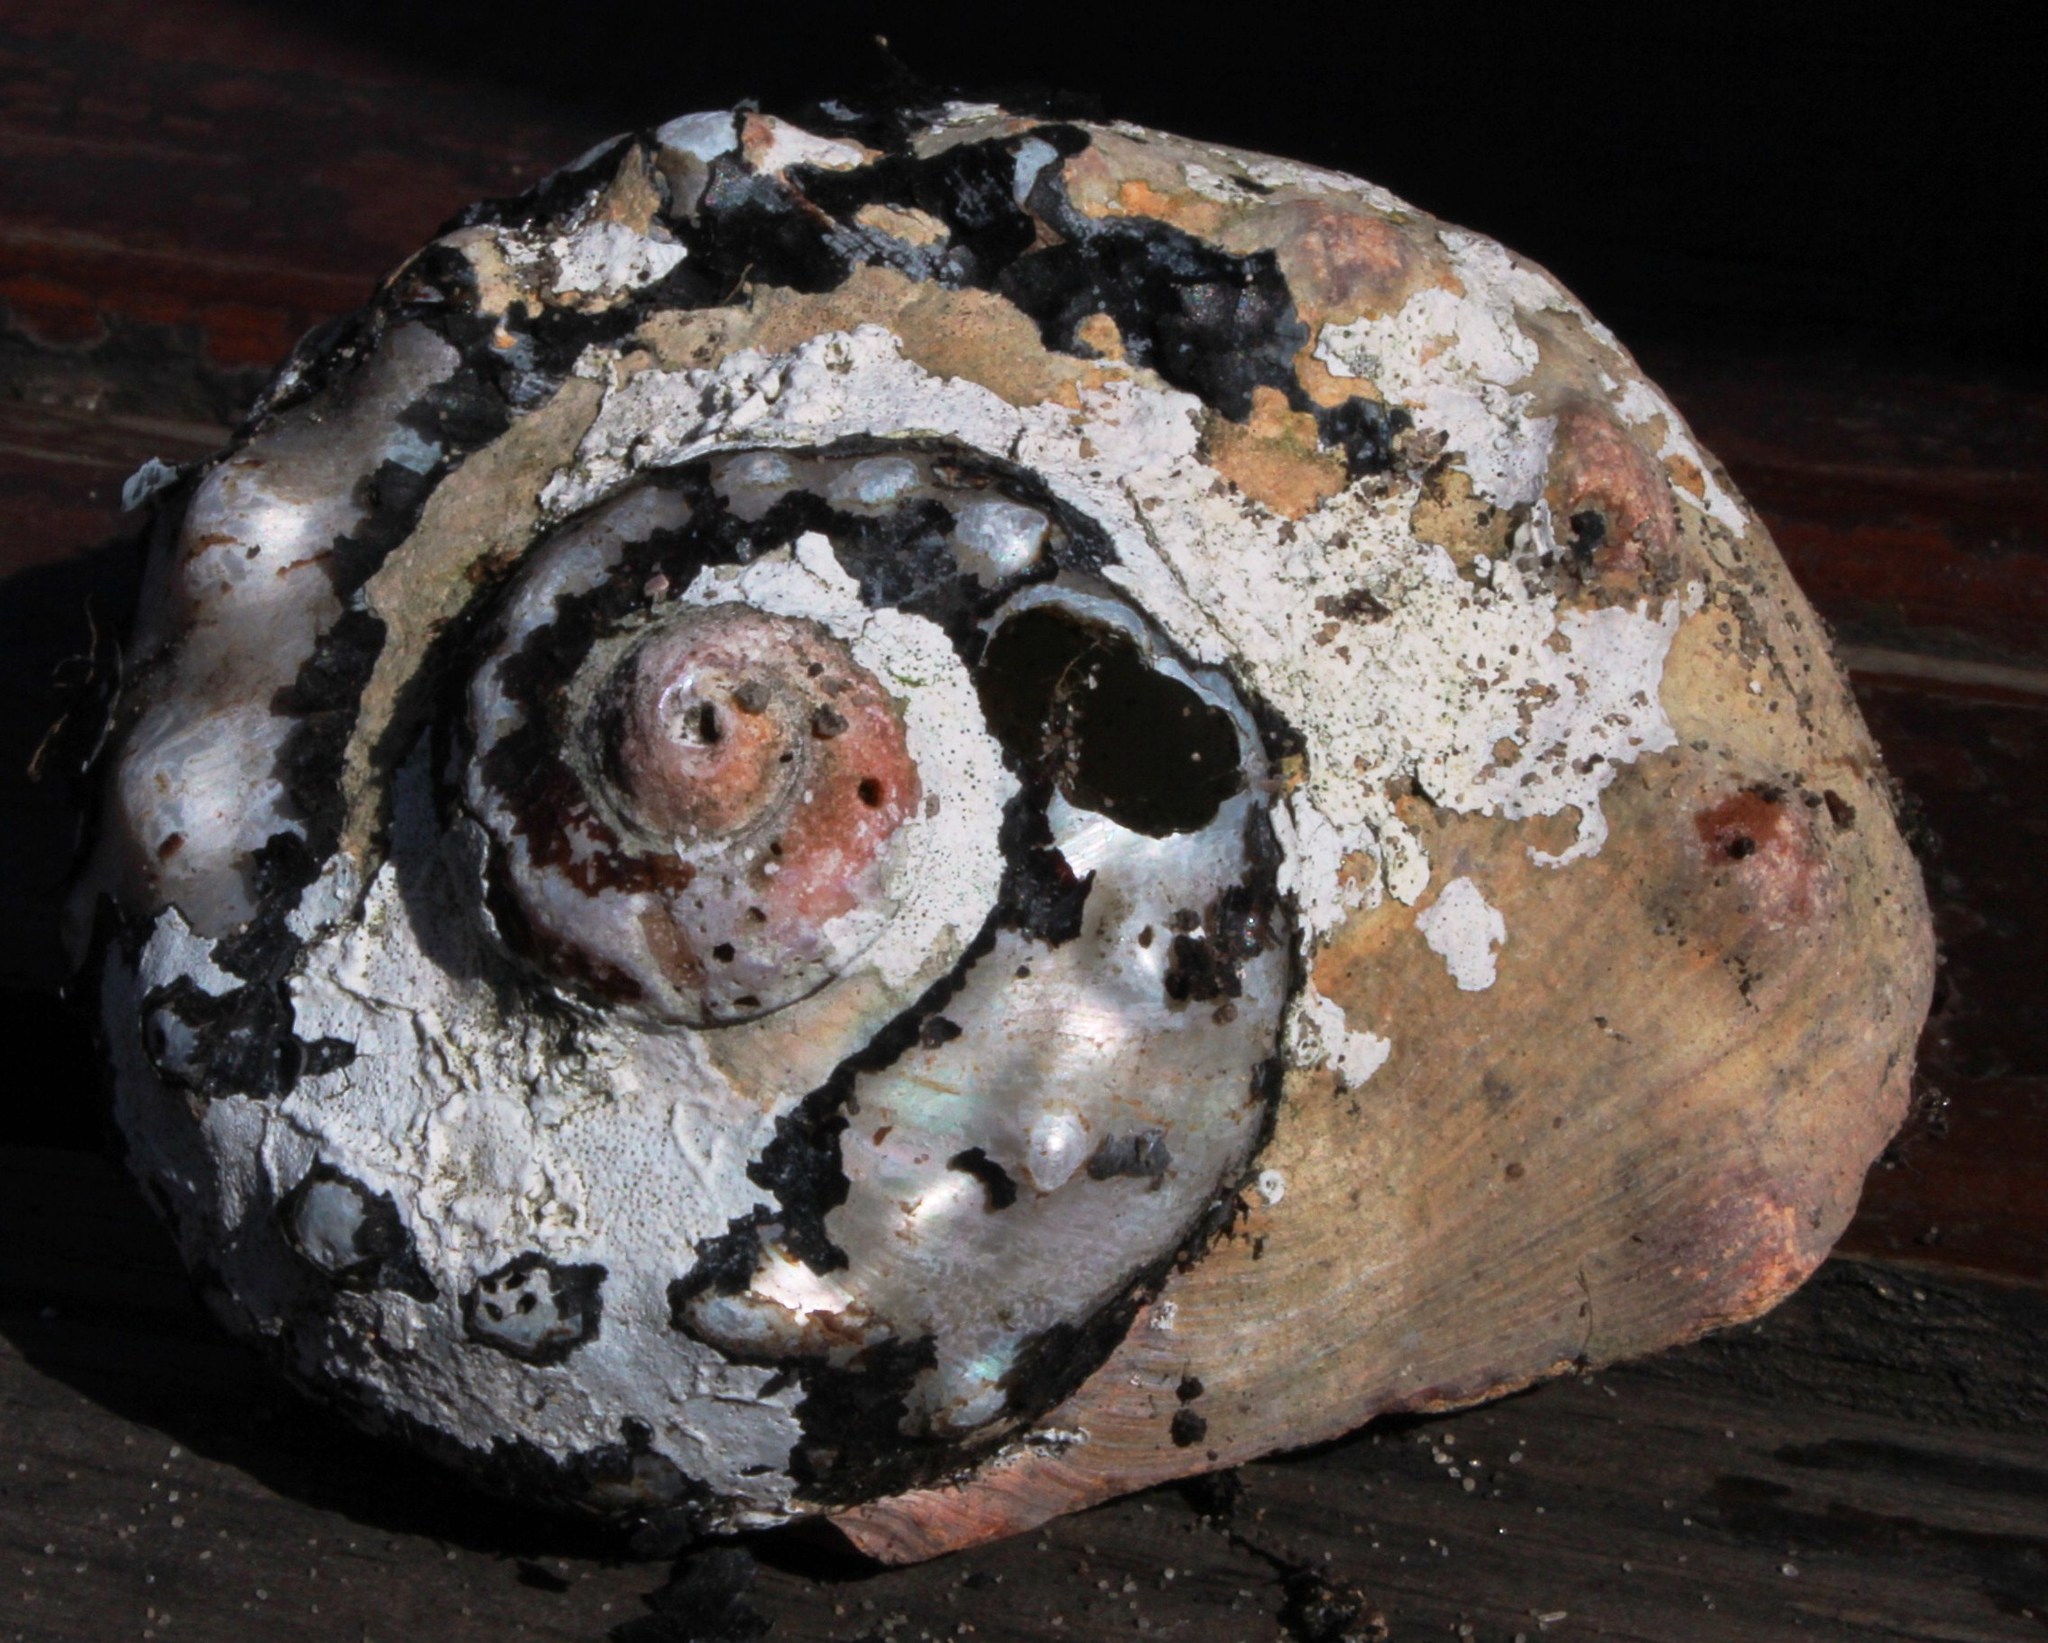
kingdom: Animalia
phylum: Mollusca
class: Gastropoda
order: Trochida
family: Turbinidae
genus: Turbo
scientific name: Turbo sarmaticus
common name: South african turban
